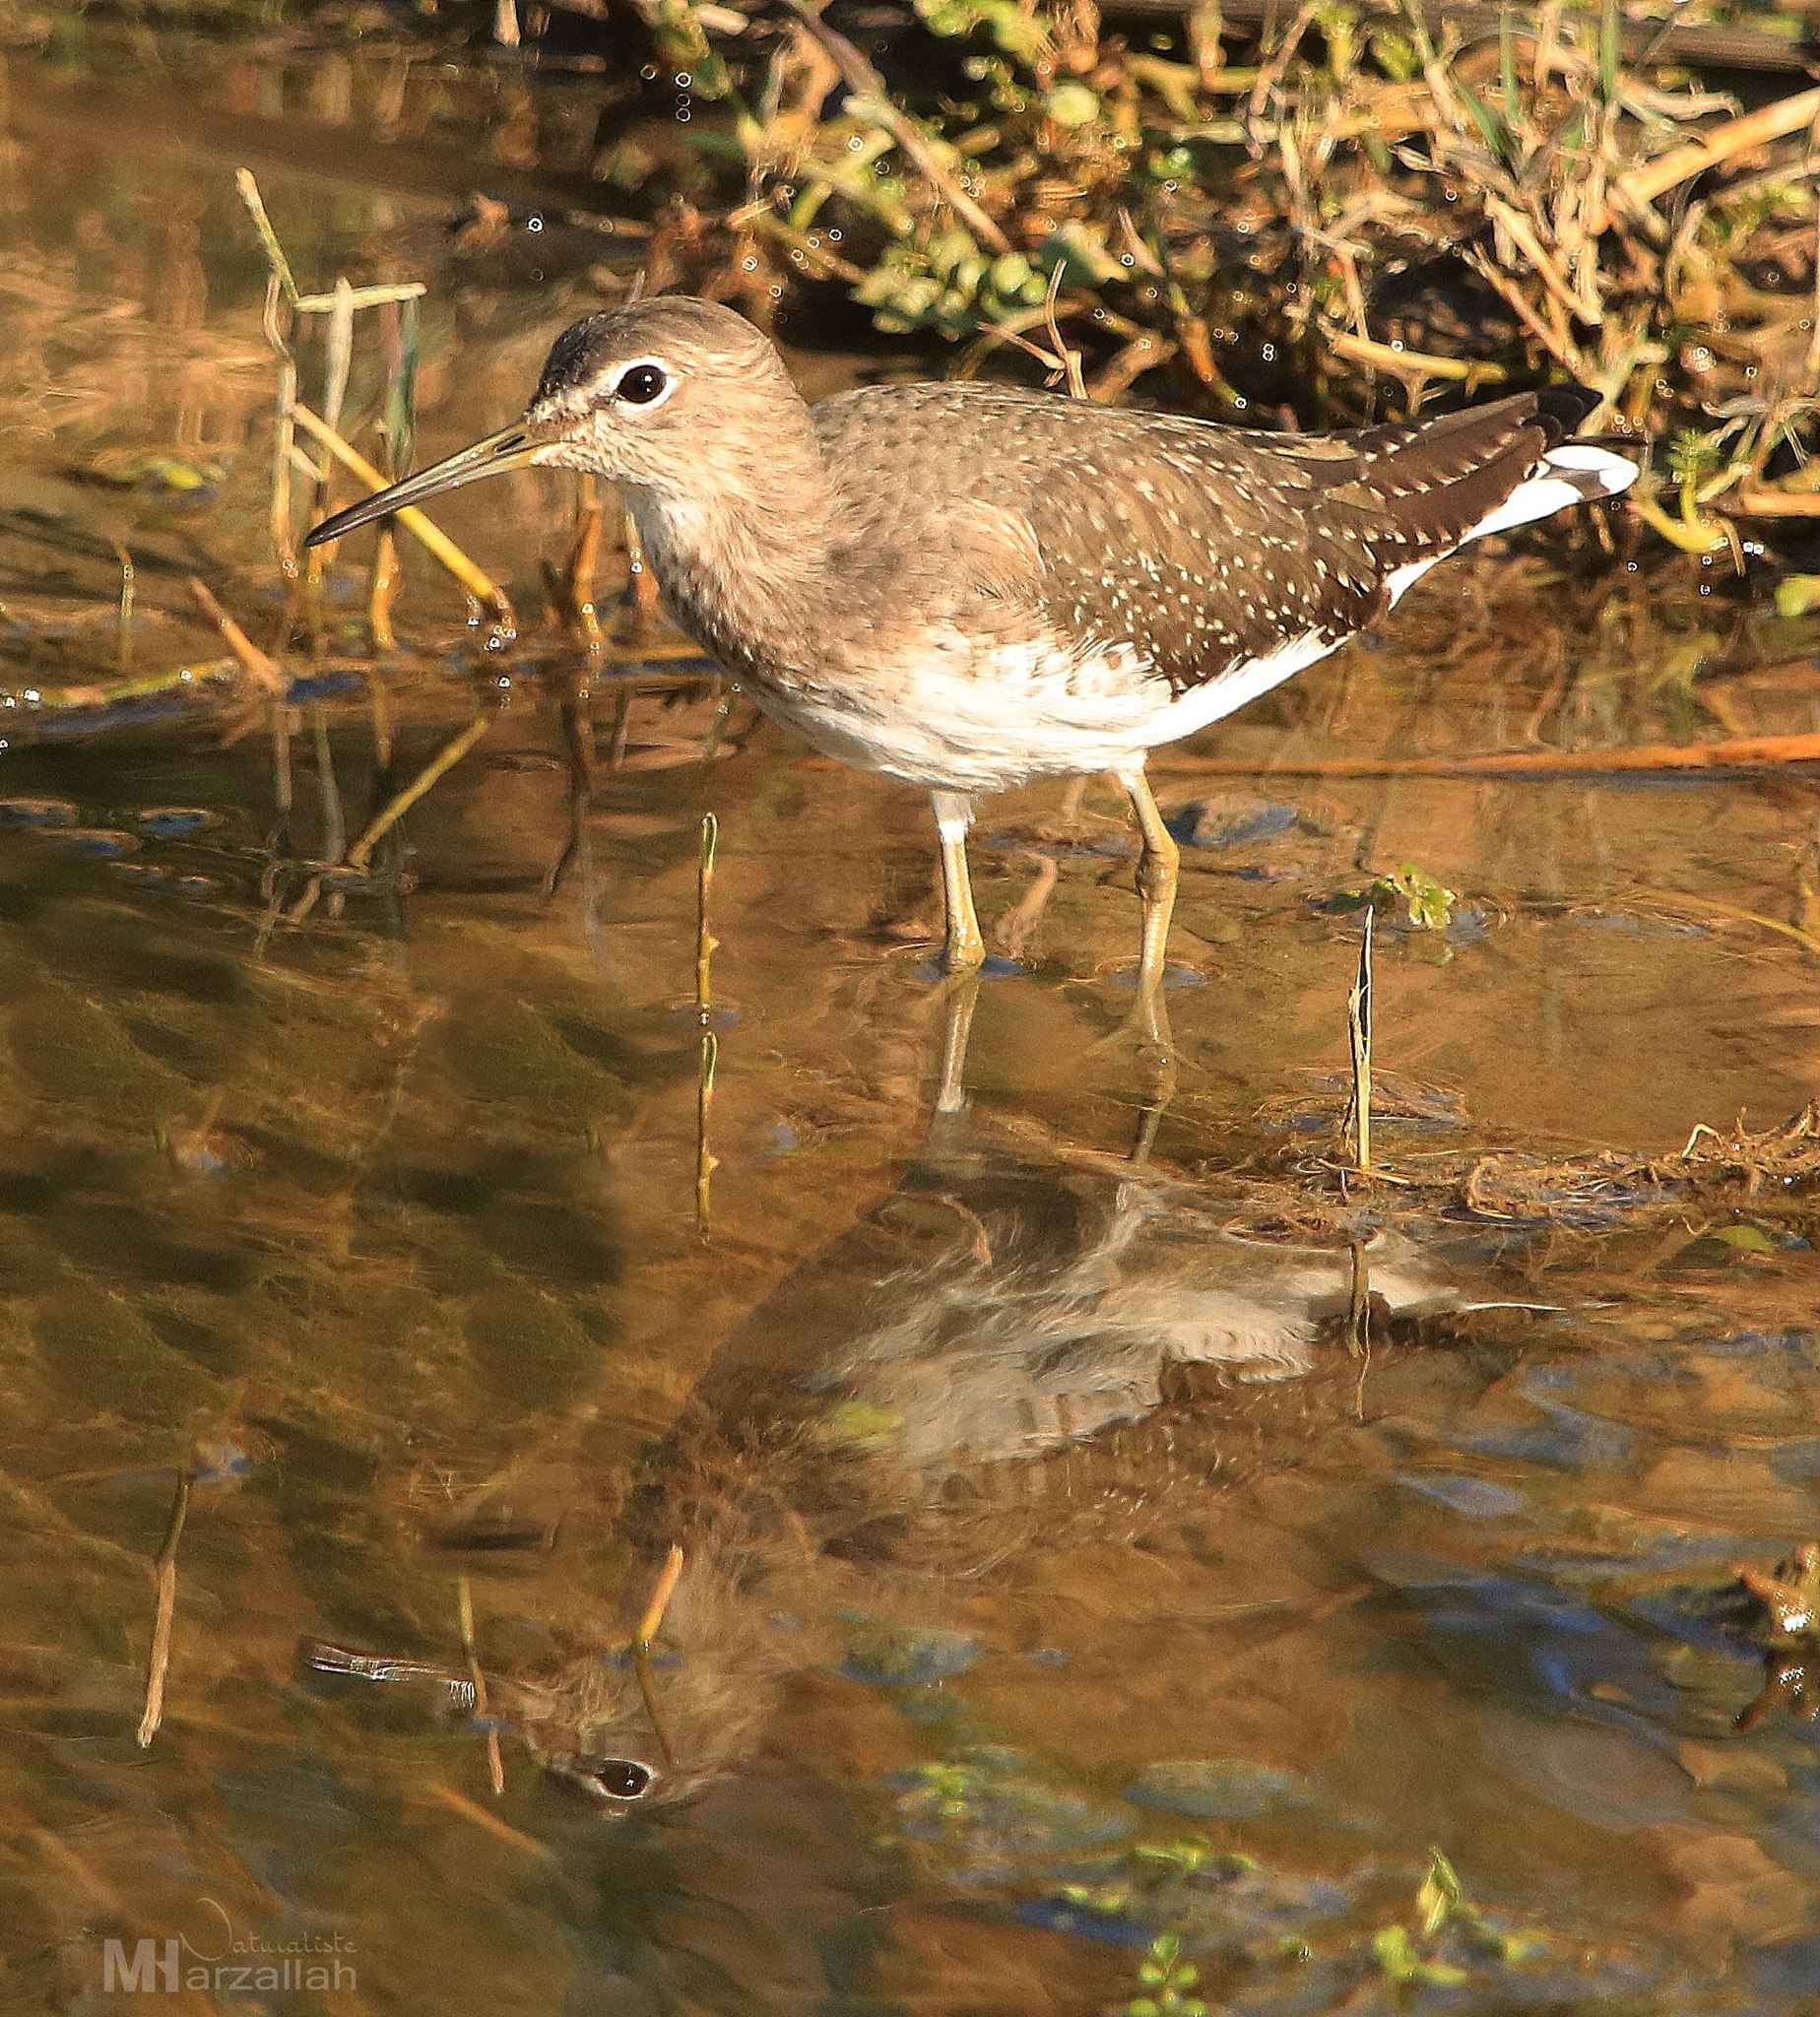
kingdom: Animalia
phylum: Chordata
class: Aves
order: Charadriiformes
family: Scolopacidae
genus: Tringa
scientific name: Tringa ochropus
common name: Green sandpiper
